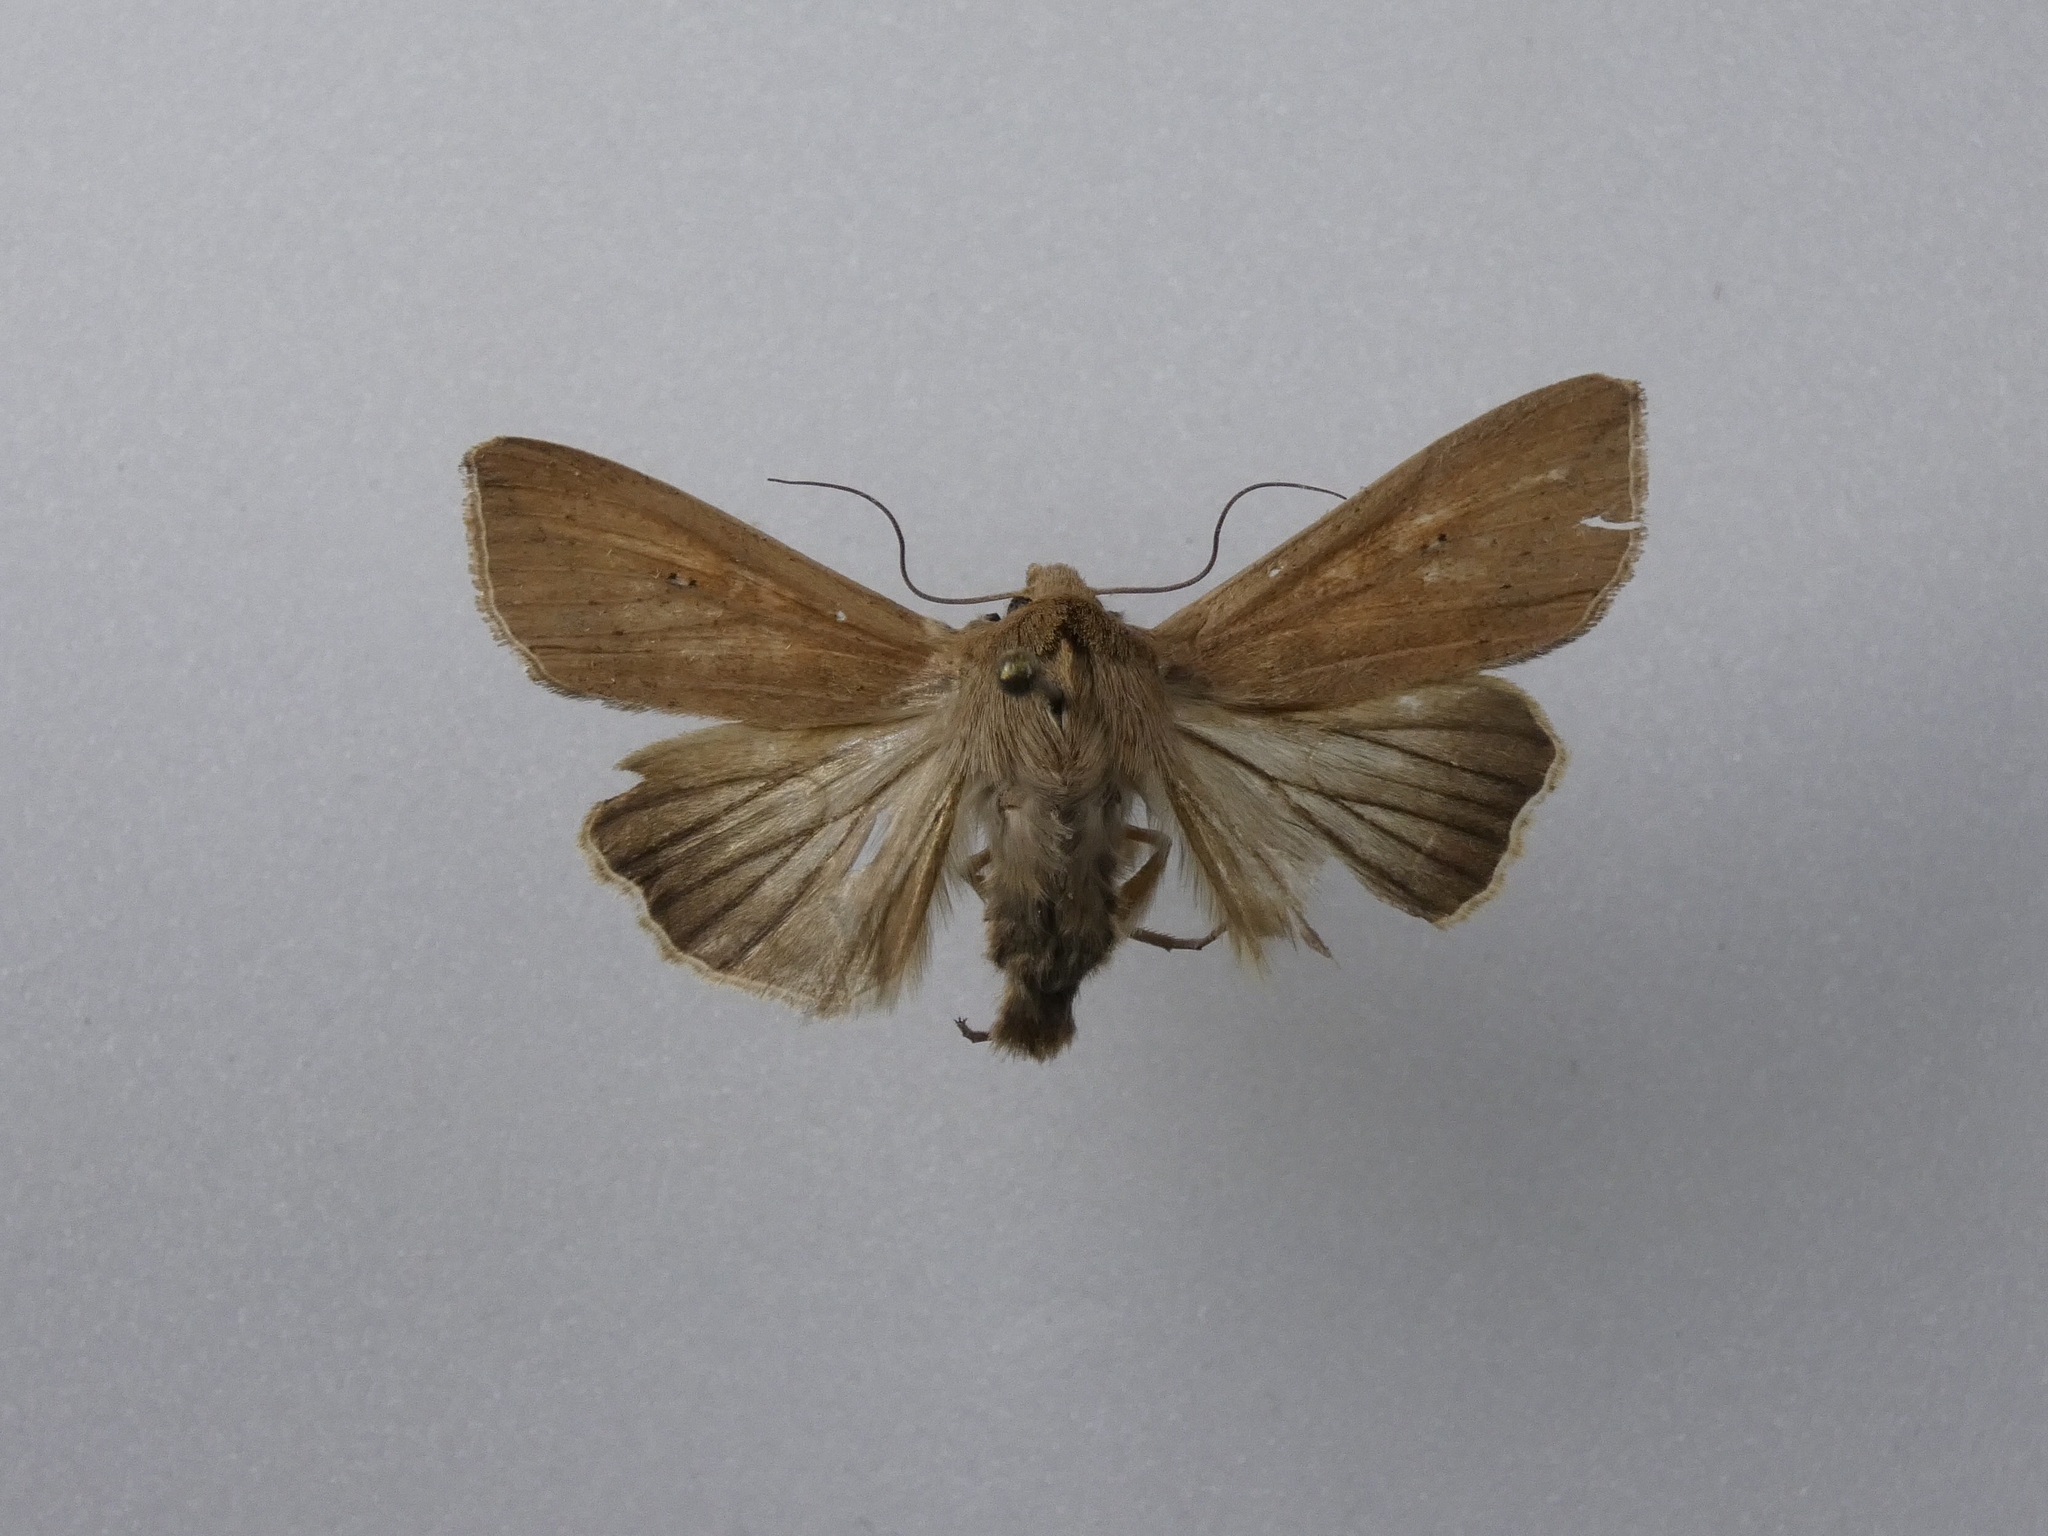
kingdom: Animalia
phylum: Arthropoda
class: Insecta
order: Lepidoptera
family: Noctuidae
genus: Mythimna
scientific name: Mythimna separata
